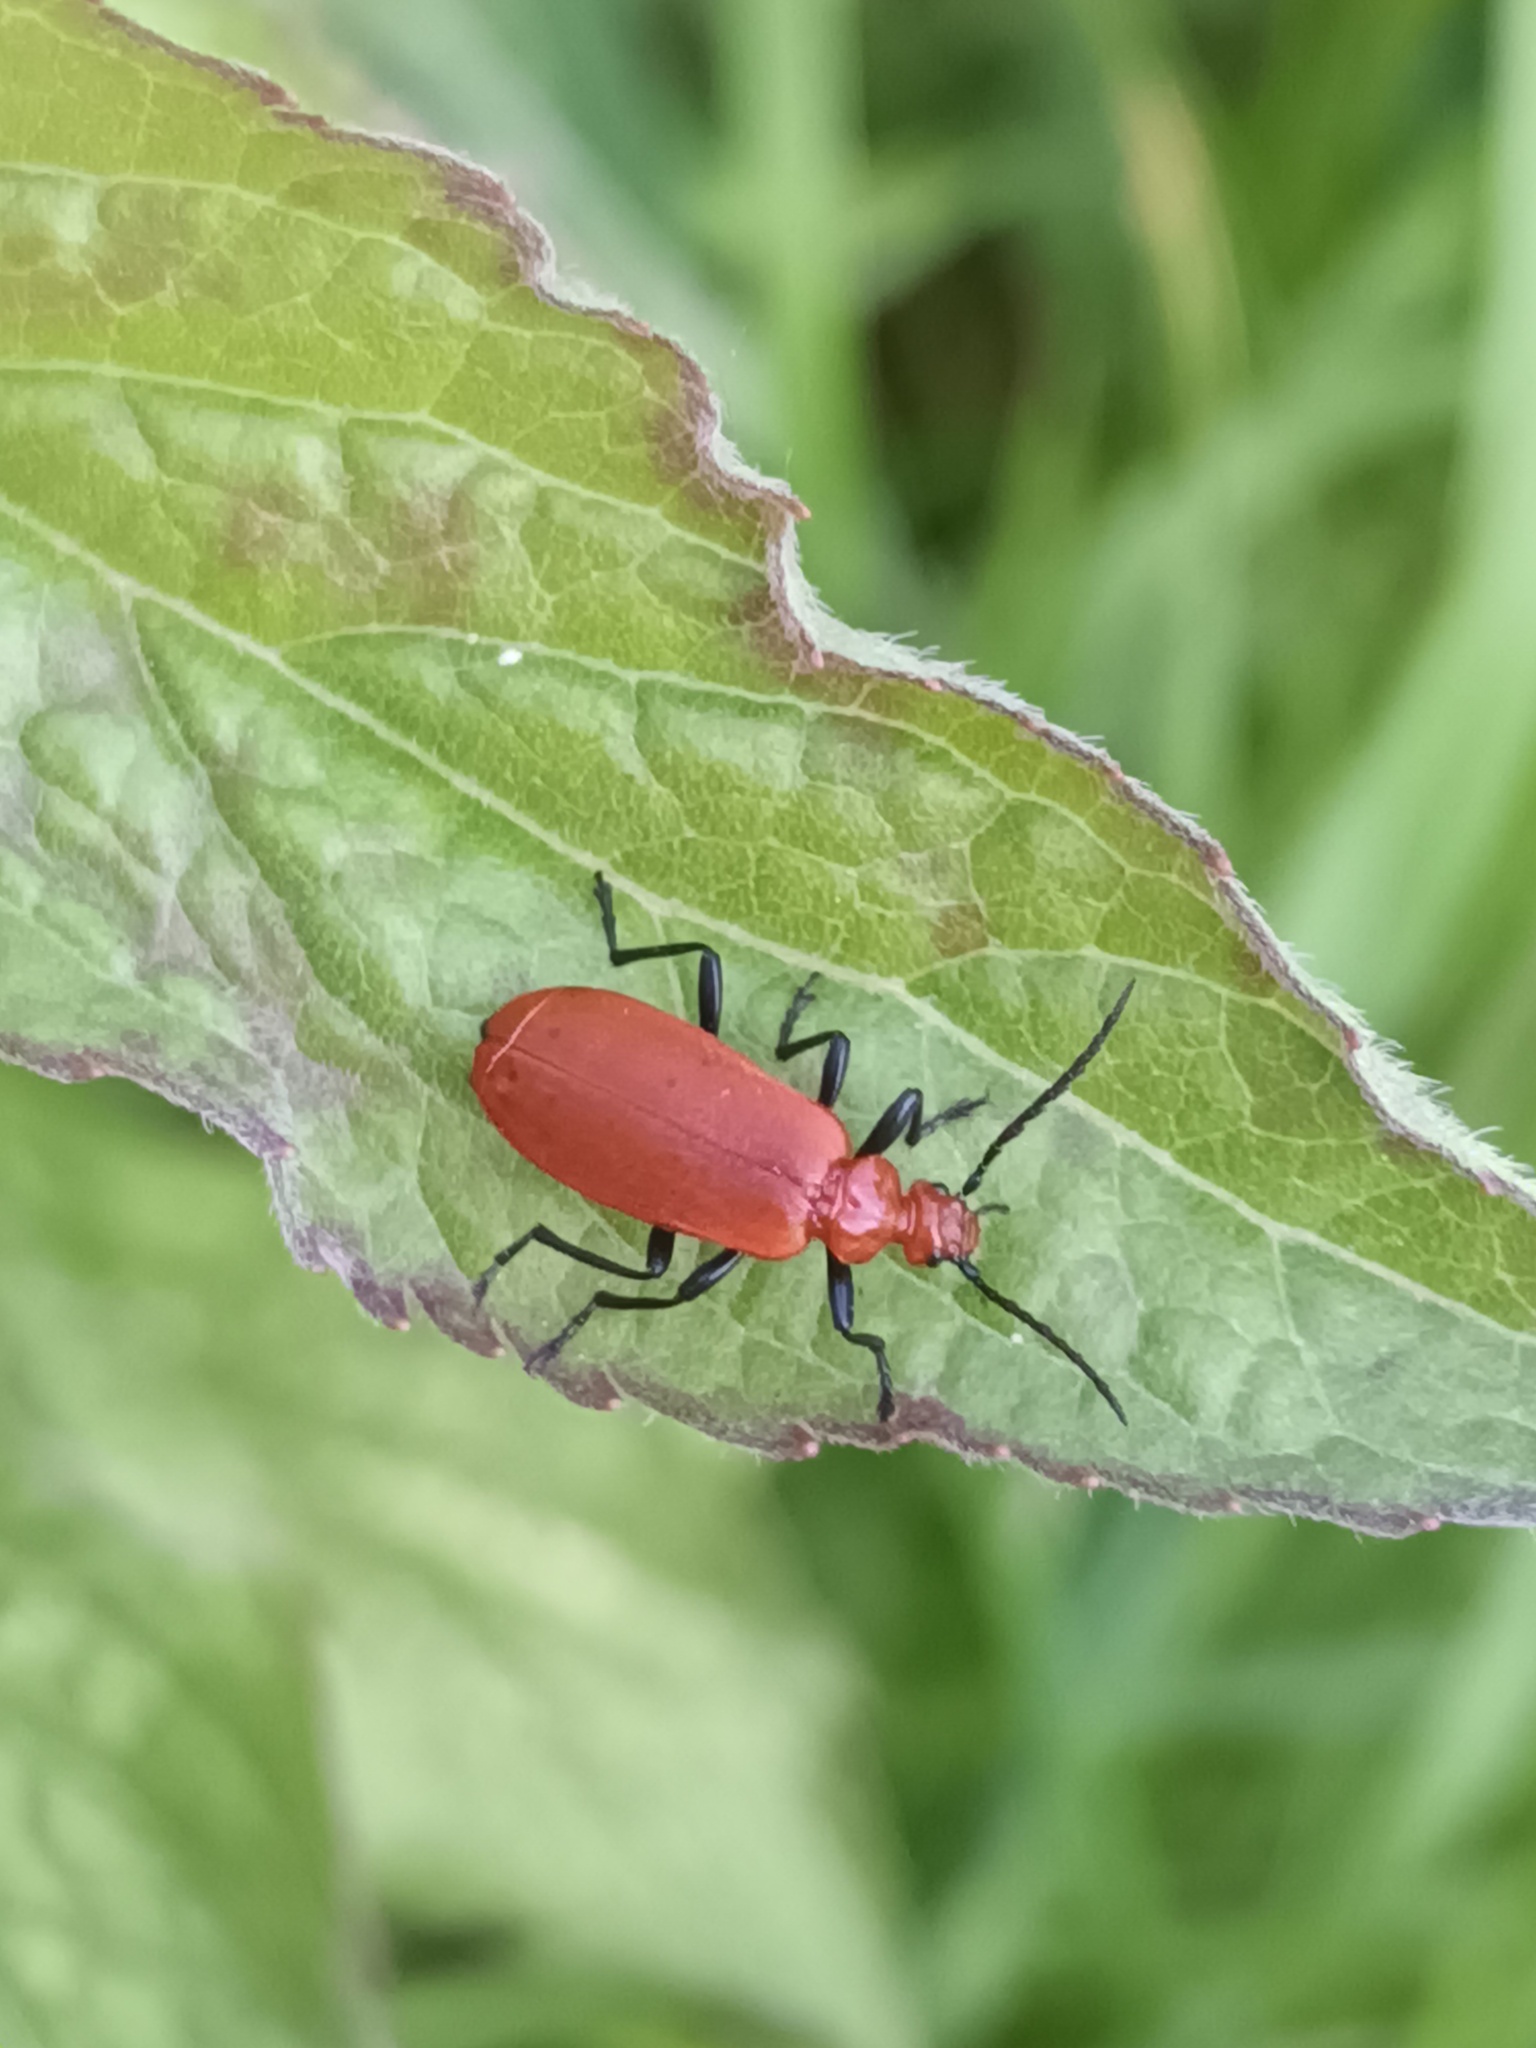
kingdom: Animalia
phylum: Arthropoda
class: Insecta
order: Coleoptera
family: Pyrochroidae
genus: Pyrochroa
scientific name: Pyrochroa serraticornis
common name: Red-headed cardinal beetle
